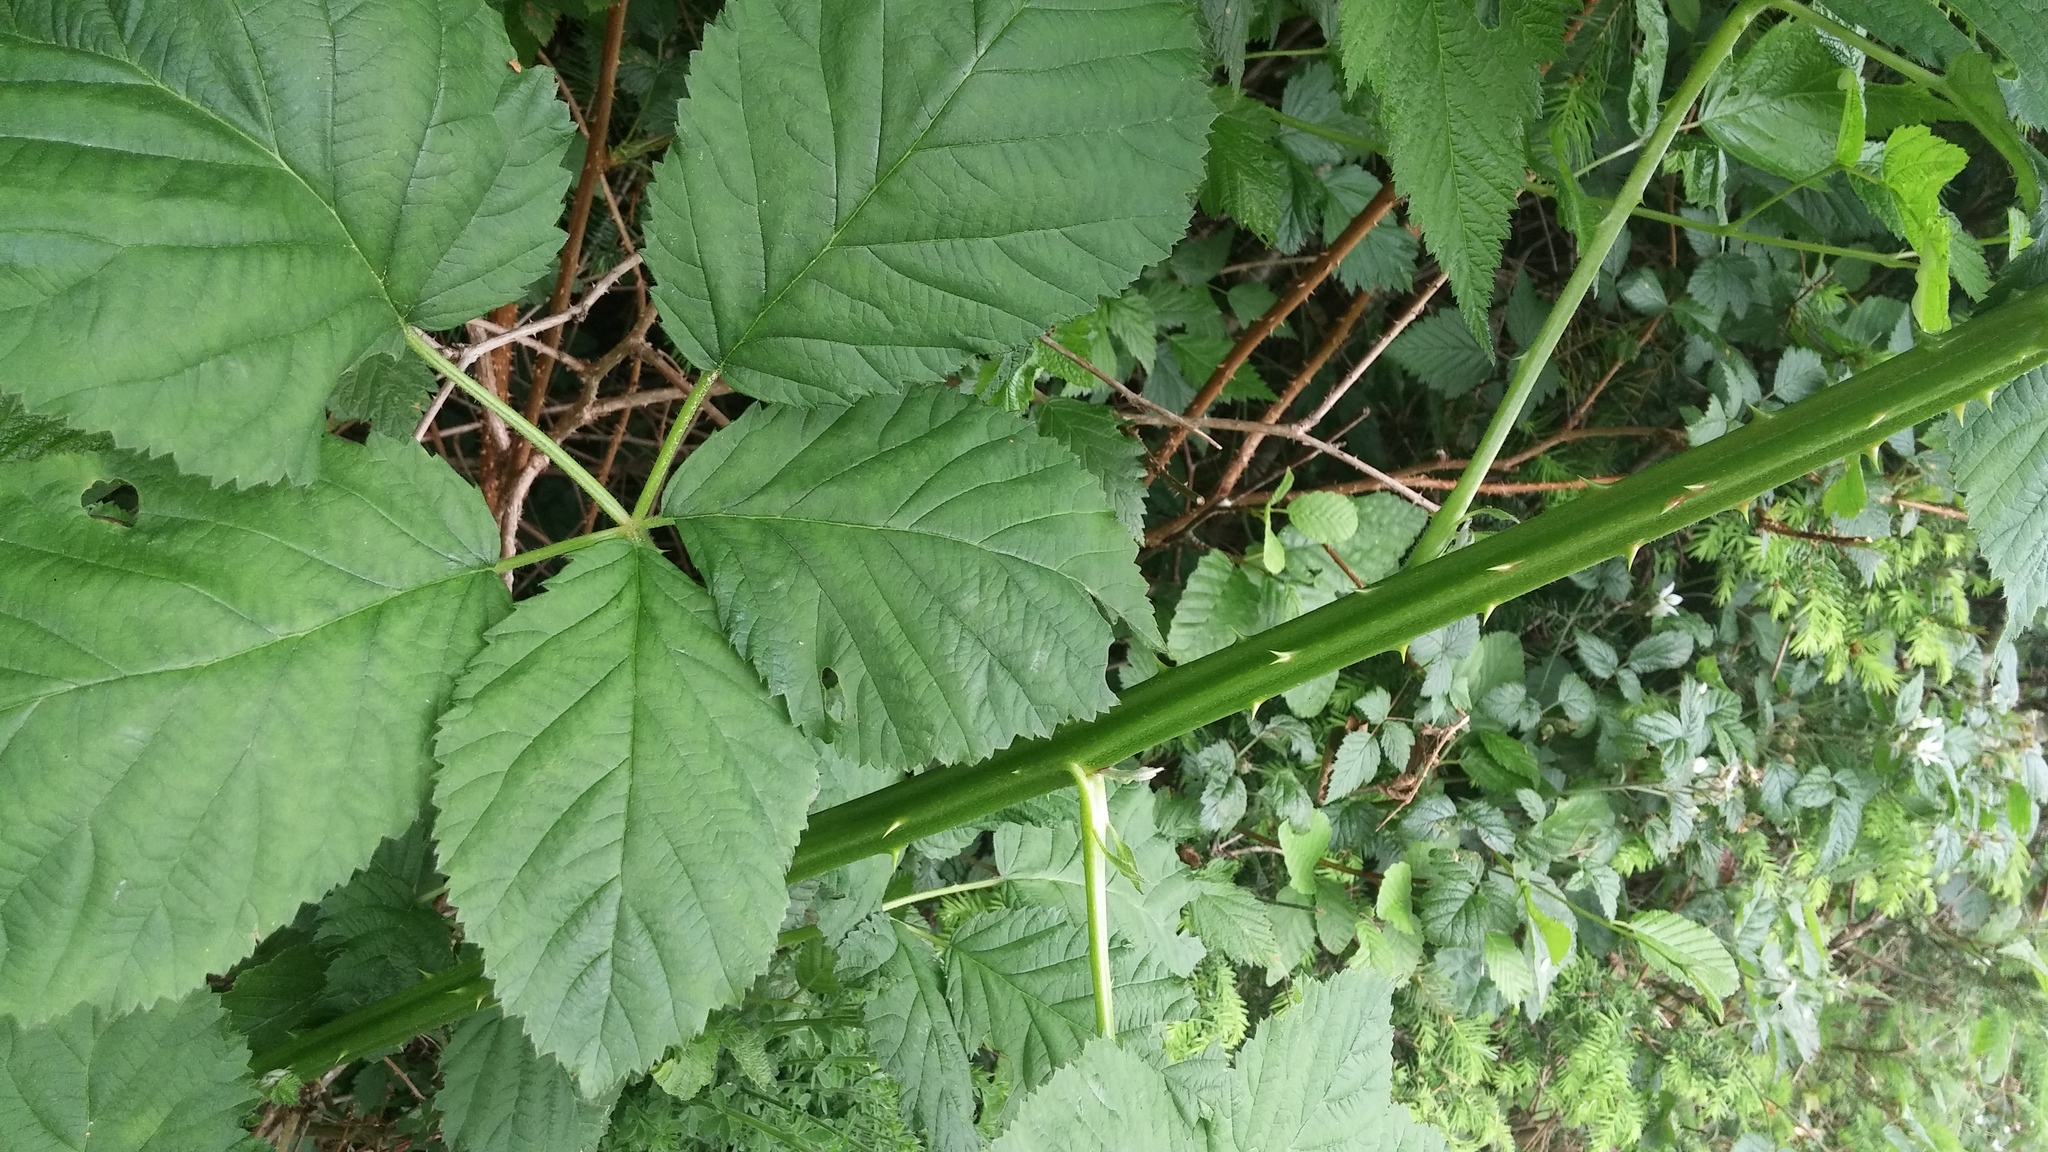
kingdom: Plantae
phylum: Tracheophyta
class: Magnoliopsida
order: Rosales
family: Rosaceae
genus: Rubus
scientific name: Rubus armeniacus
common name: Himalayan blackberry
